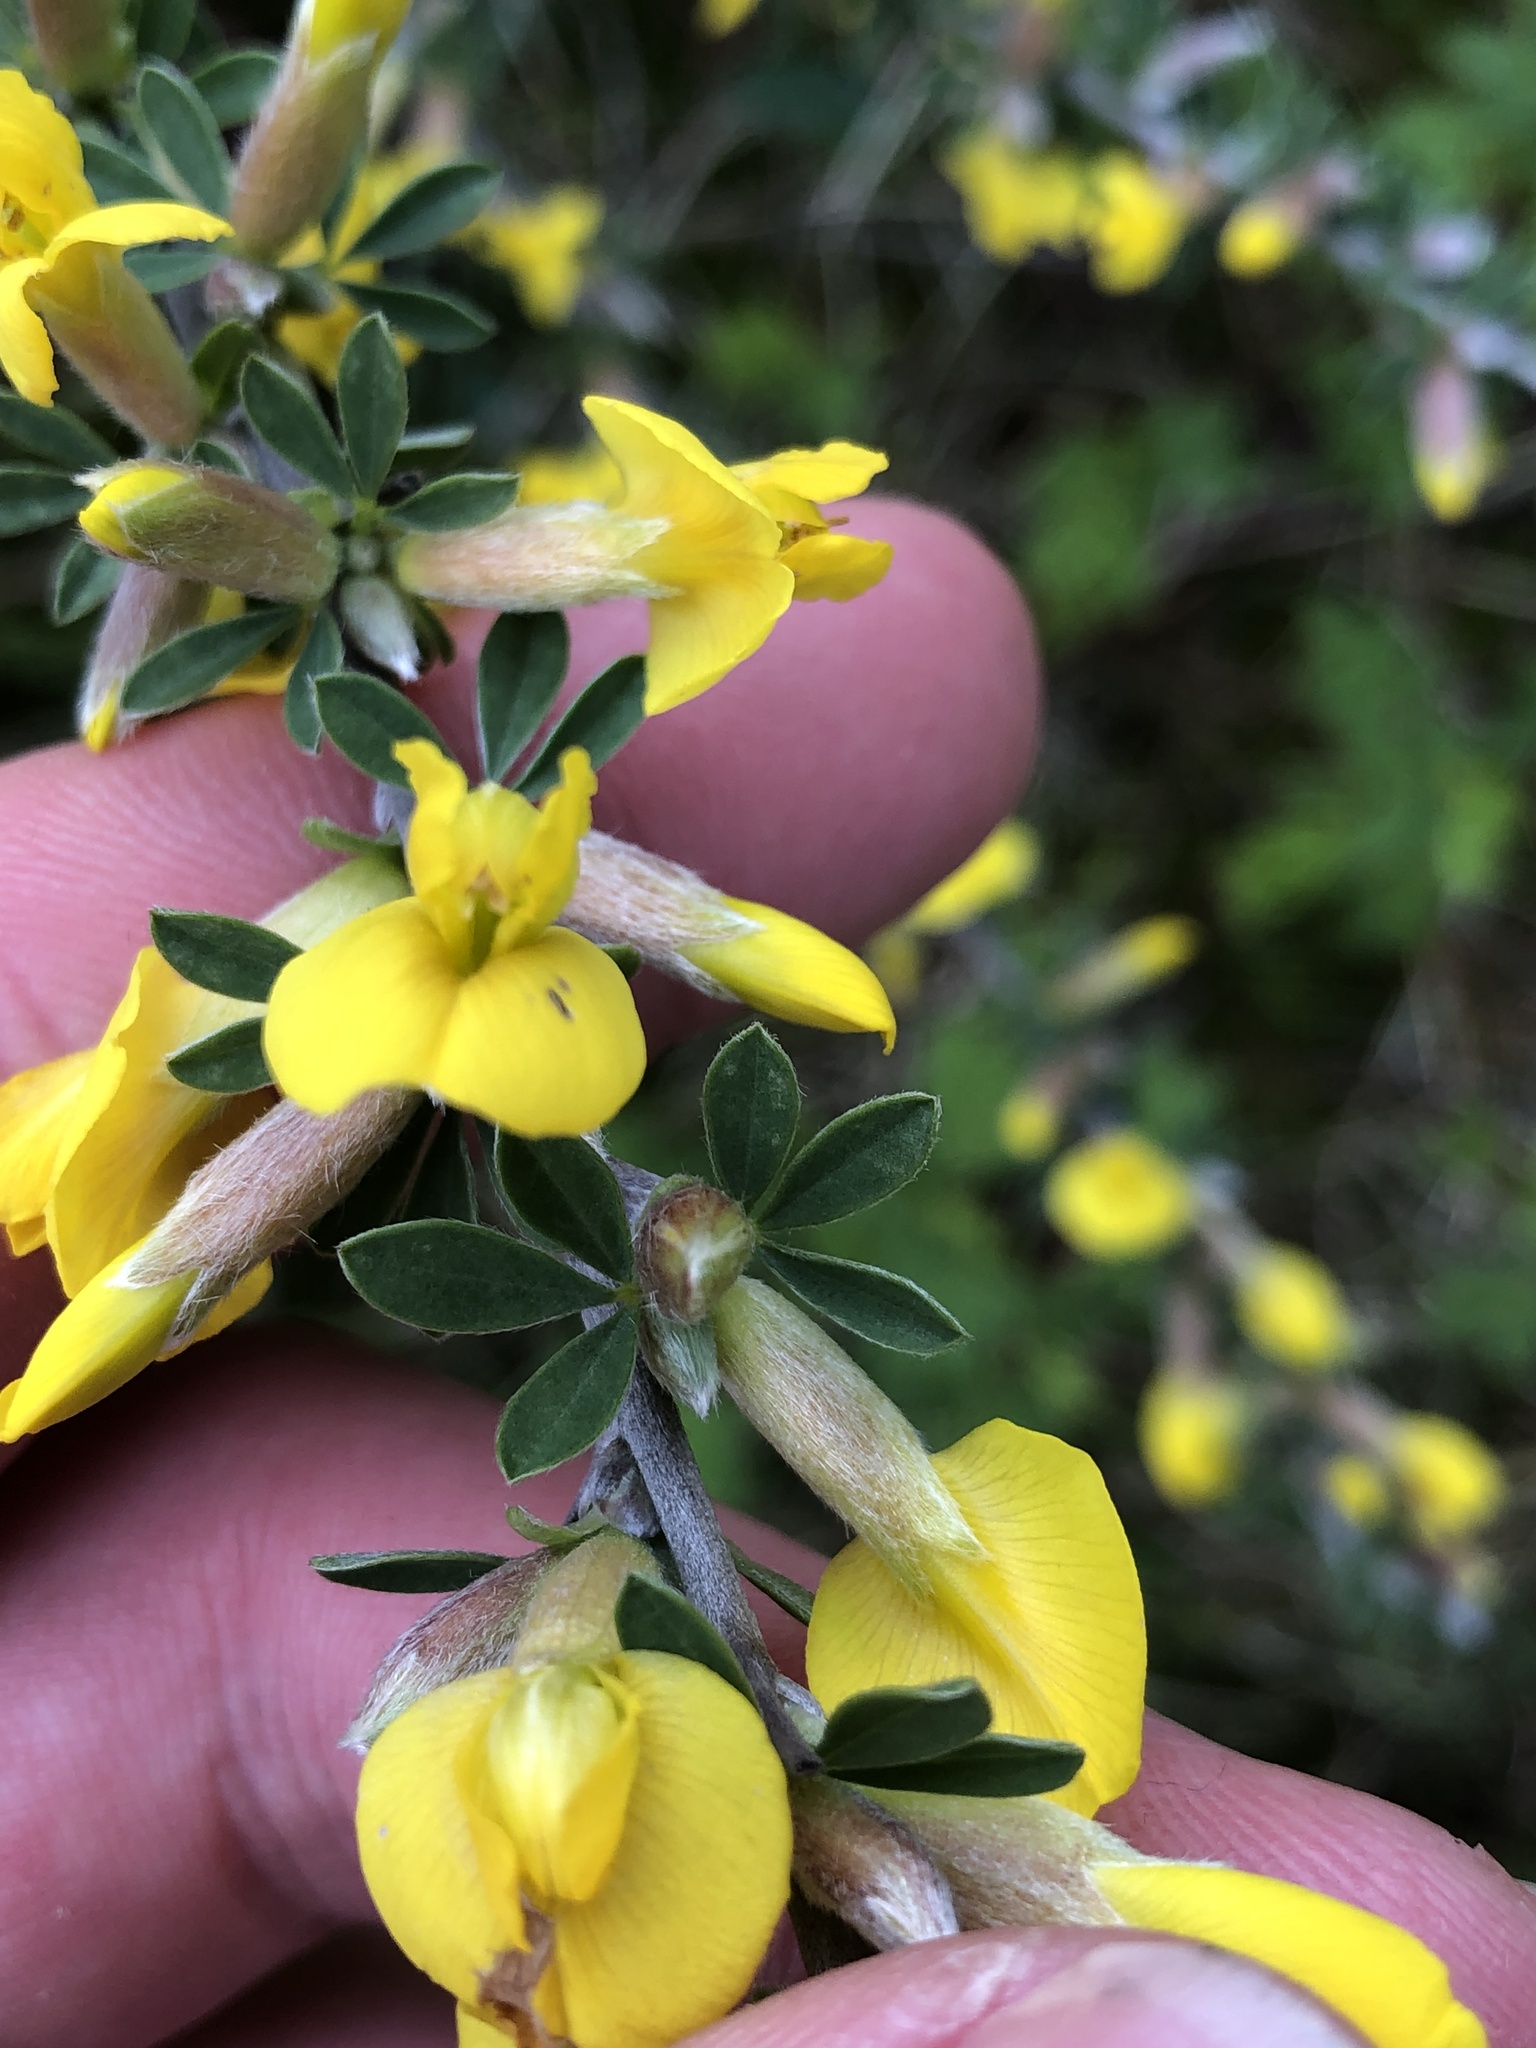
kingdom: Plantae
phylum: Tracheophyta
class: Magnoliopsida
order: Fabales
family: Fabaceae
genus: Chamaecytisus
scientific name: Chamaecytisus ratisbonensis
